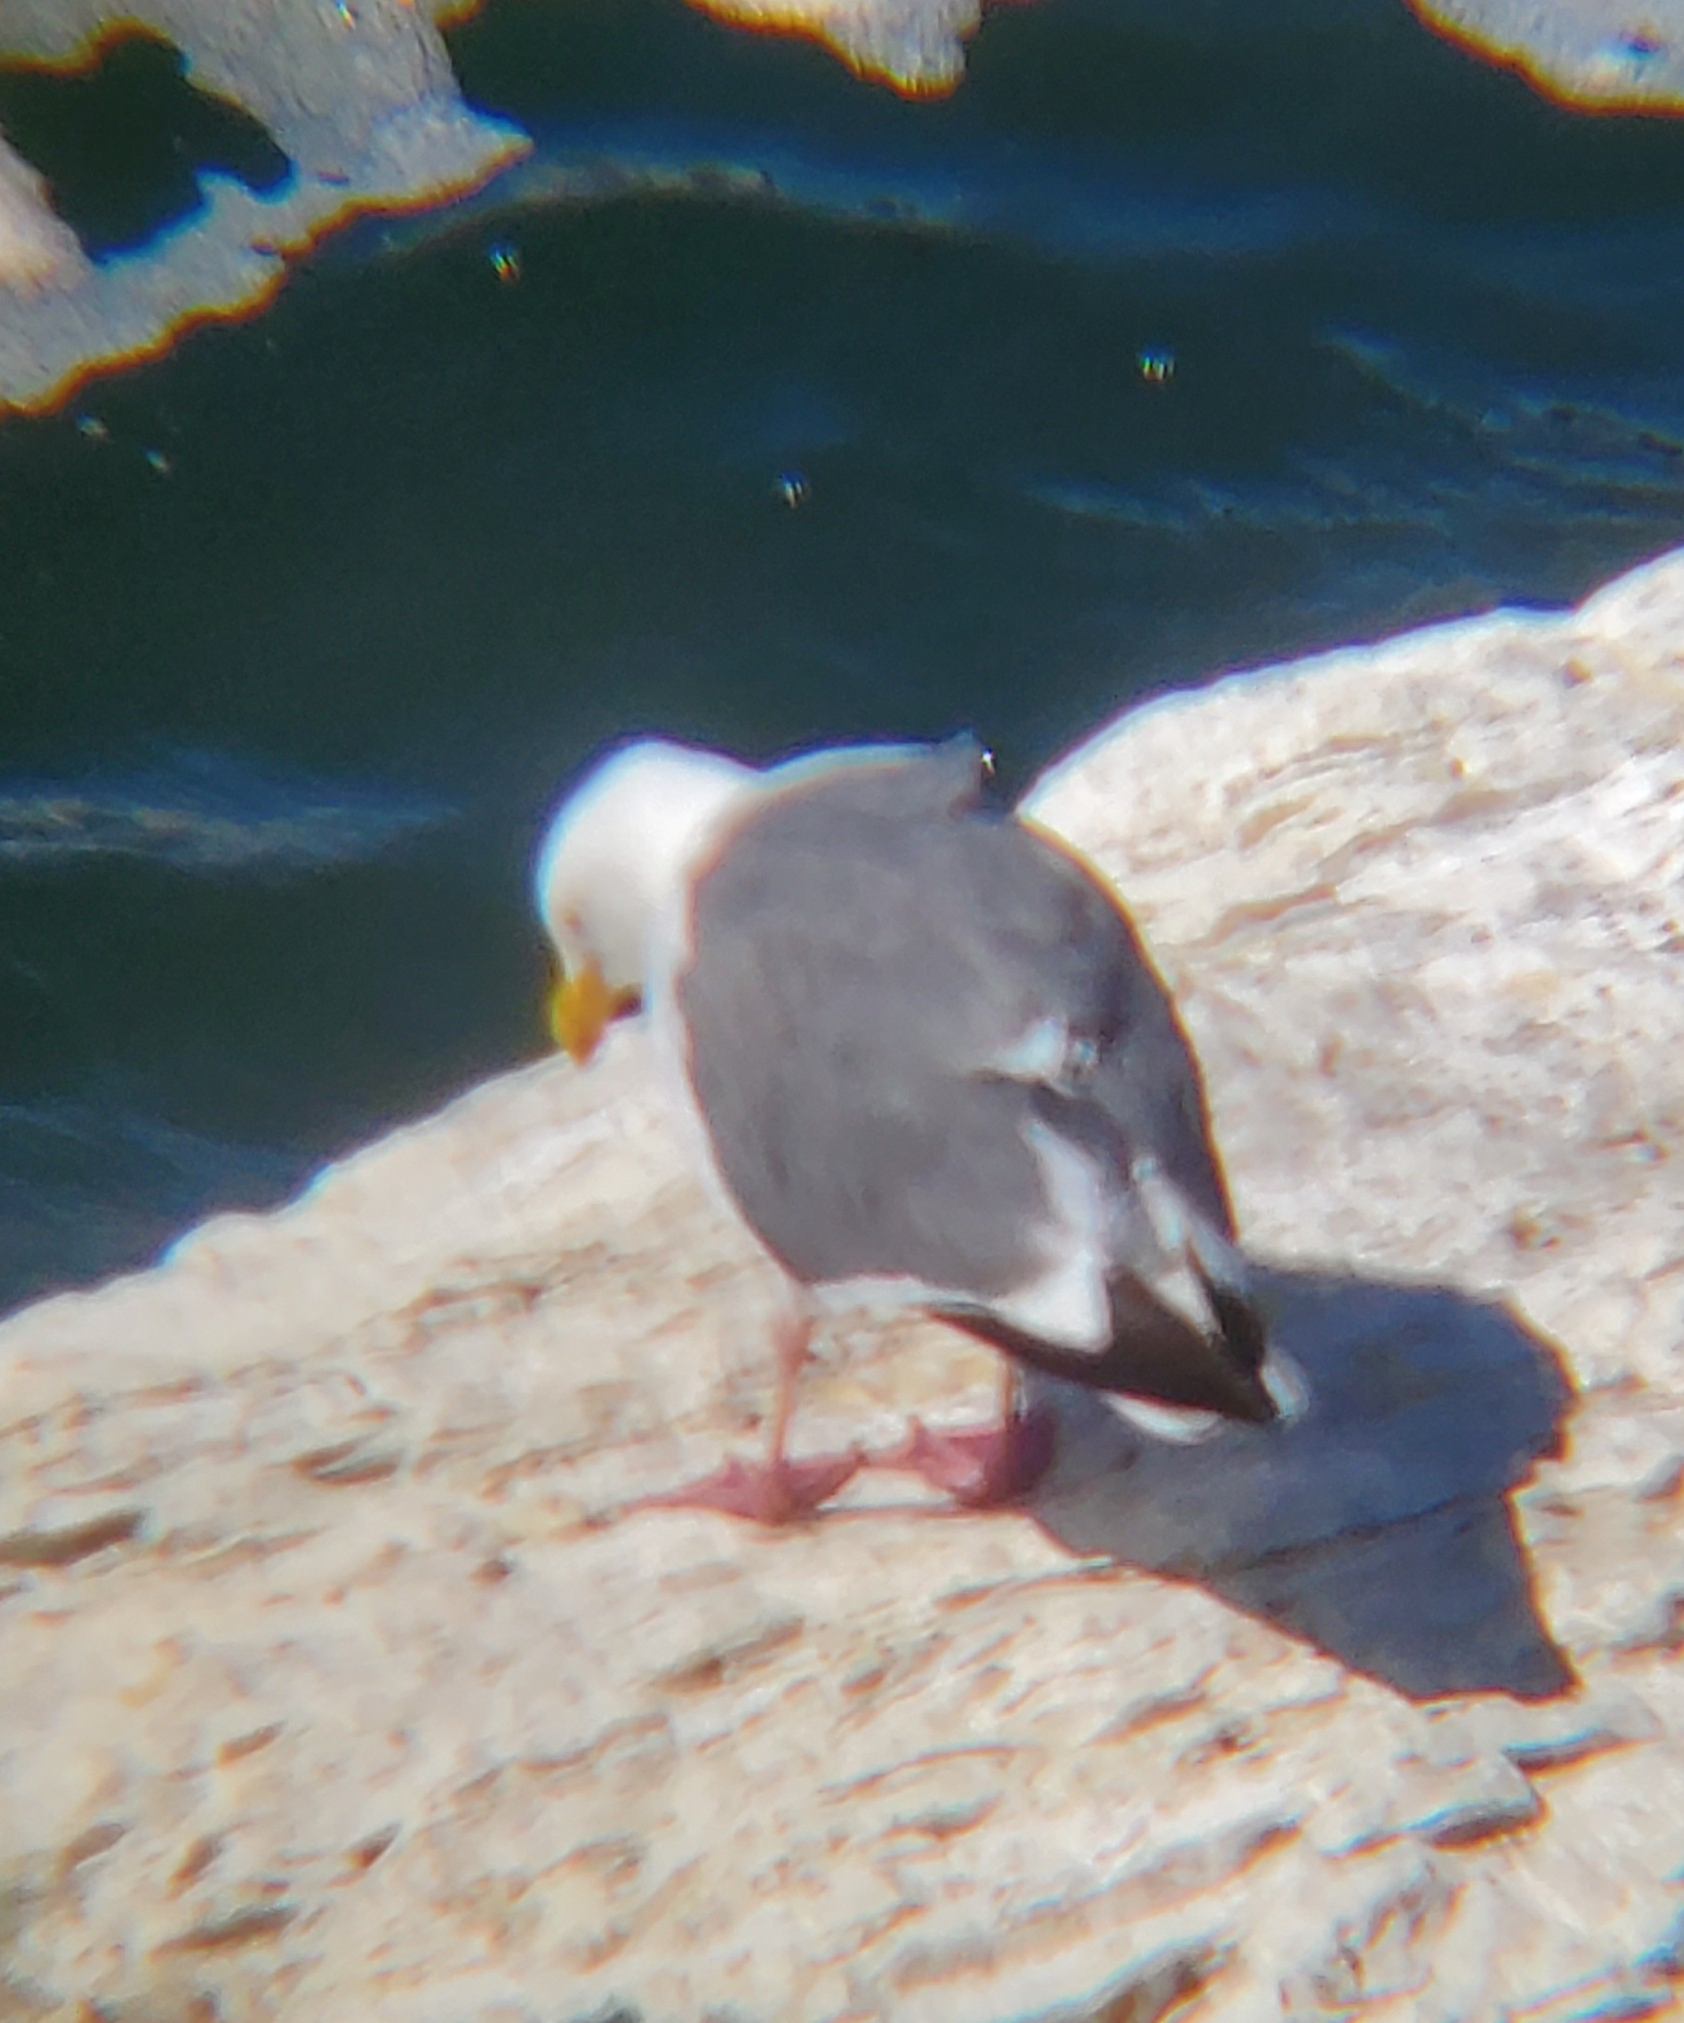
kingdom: Animalia
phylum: Chordata
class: Aves
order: Charadriiformes
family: Laridae
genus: Larus
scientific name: Larus occidentalis
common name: Western gull
